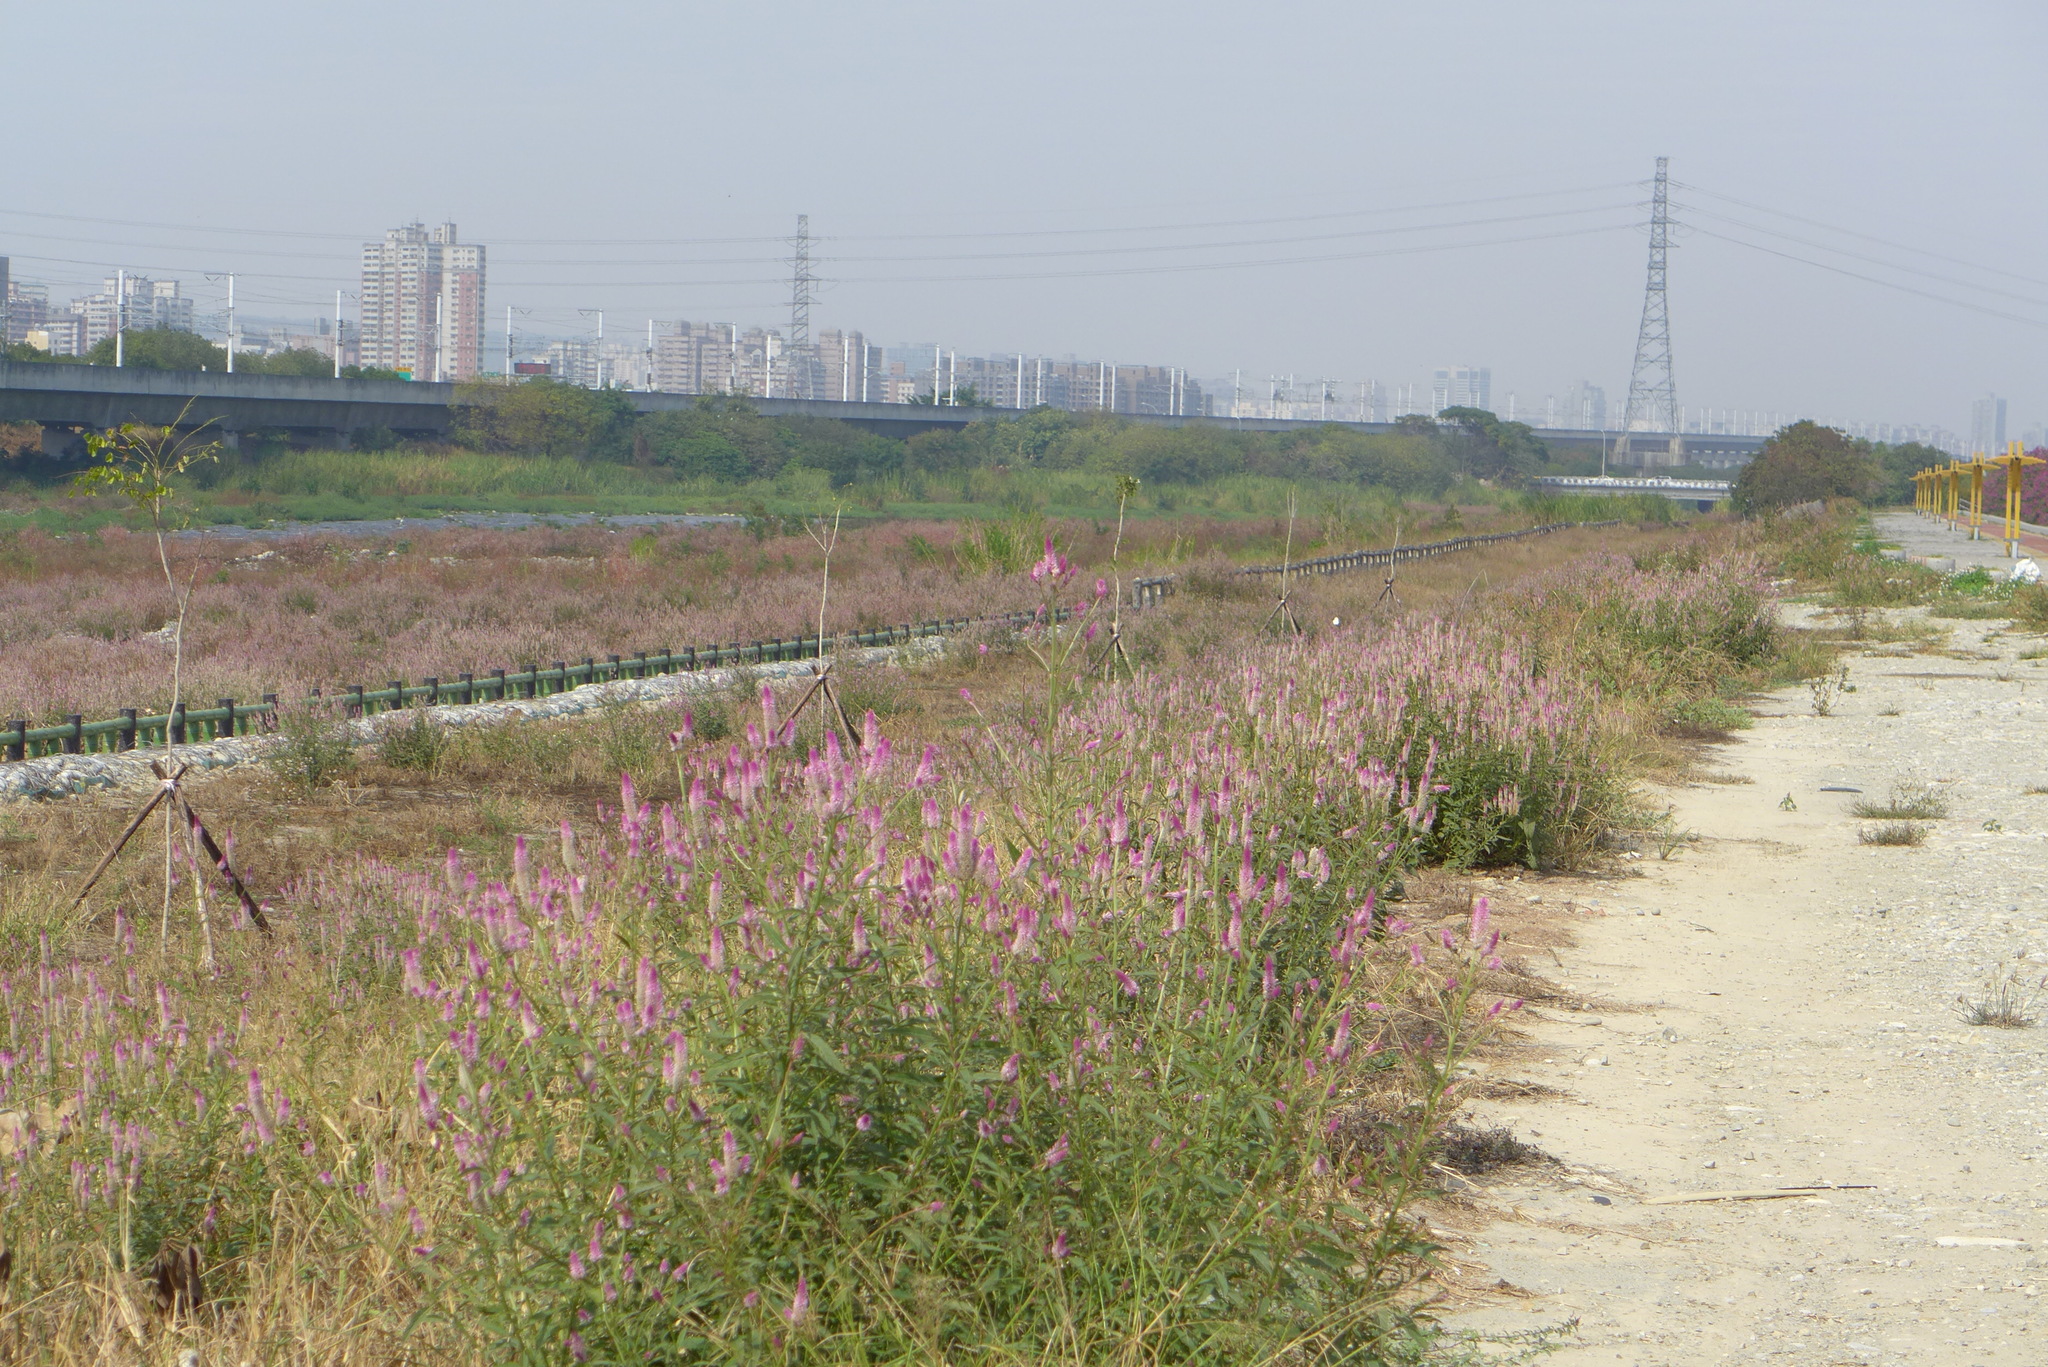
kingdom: Plantae
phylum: Tracheophyta
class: Magnoliopsida
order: Caryophyllales
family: Amaranthaceae
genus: Celosia
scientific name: Celosia argentea
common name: Feather cockscomb
